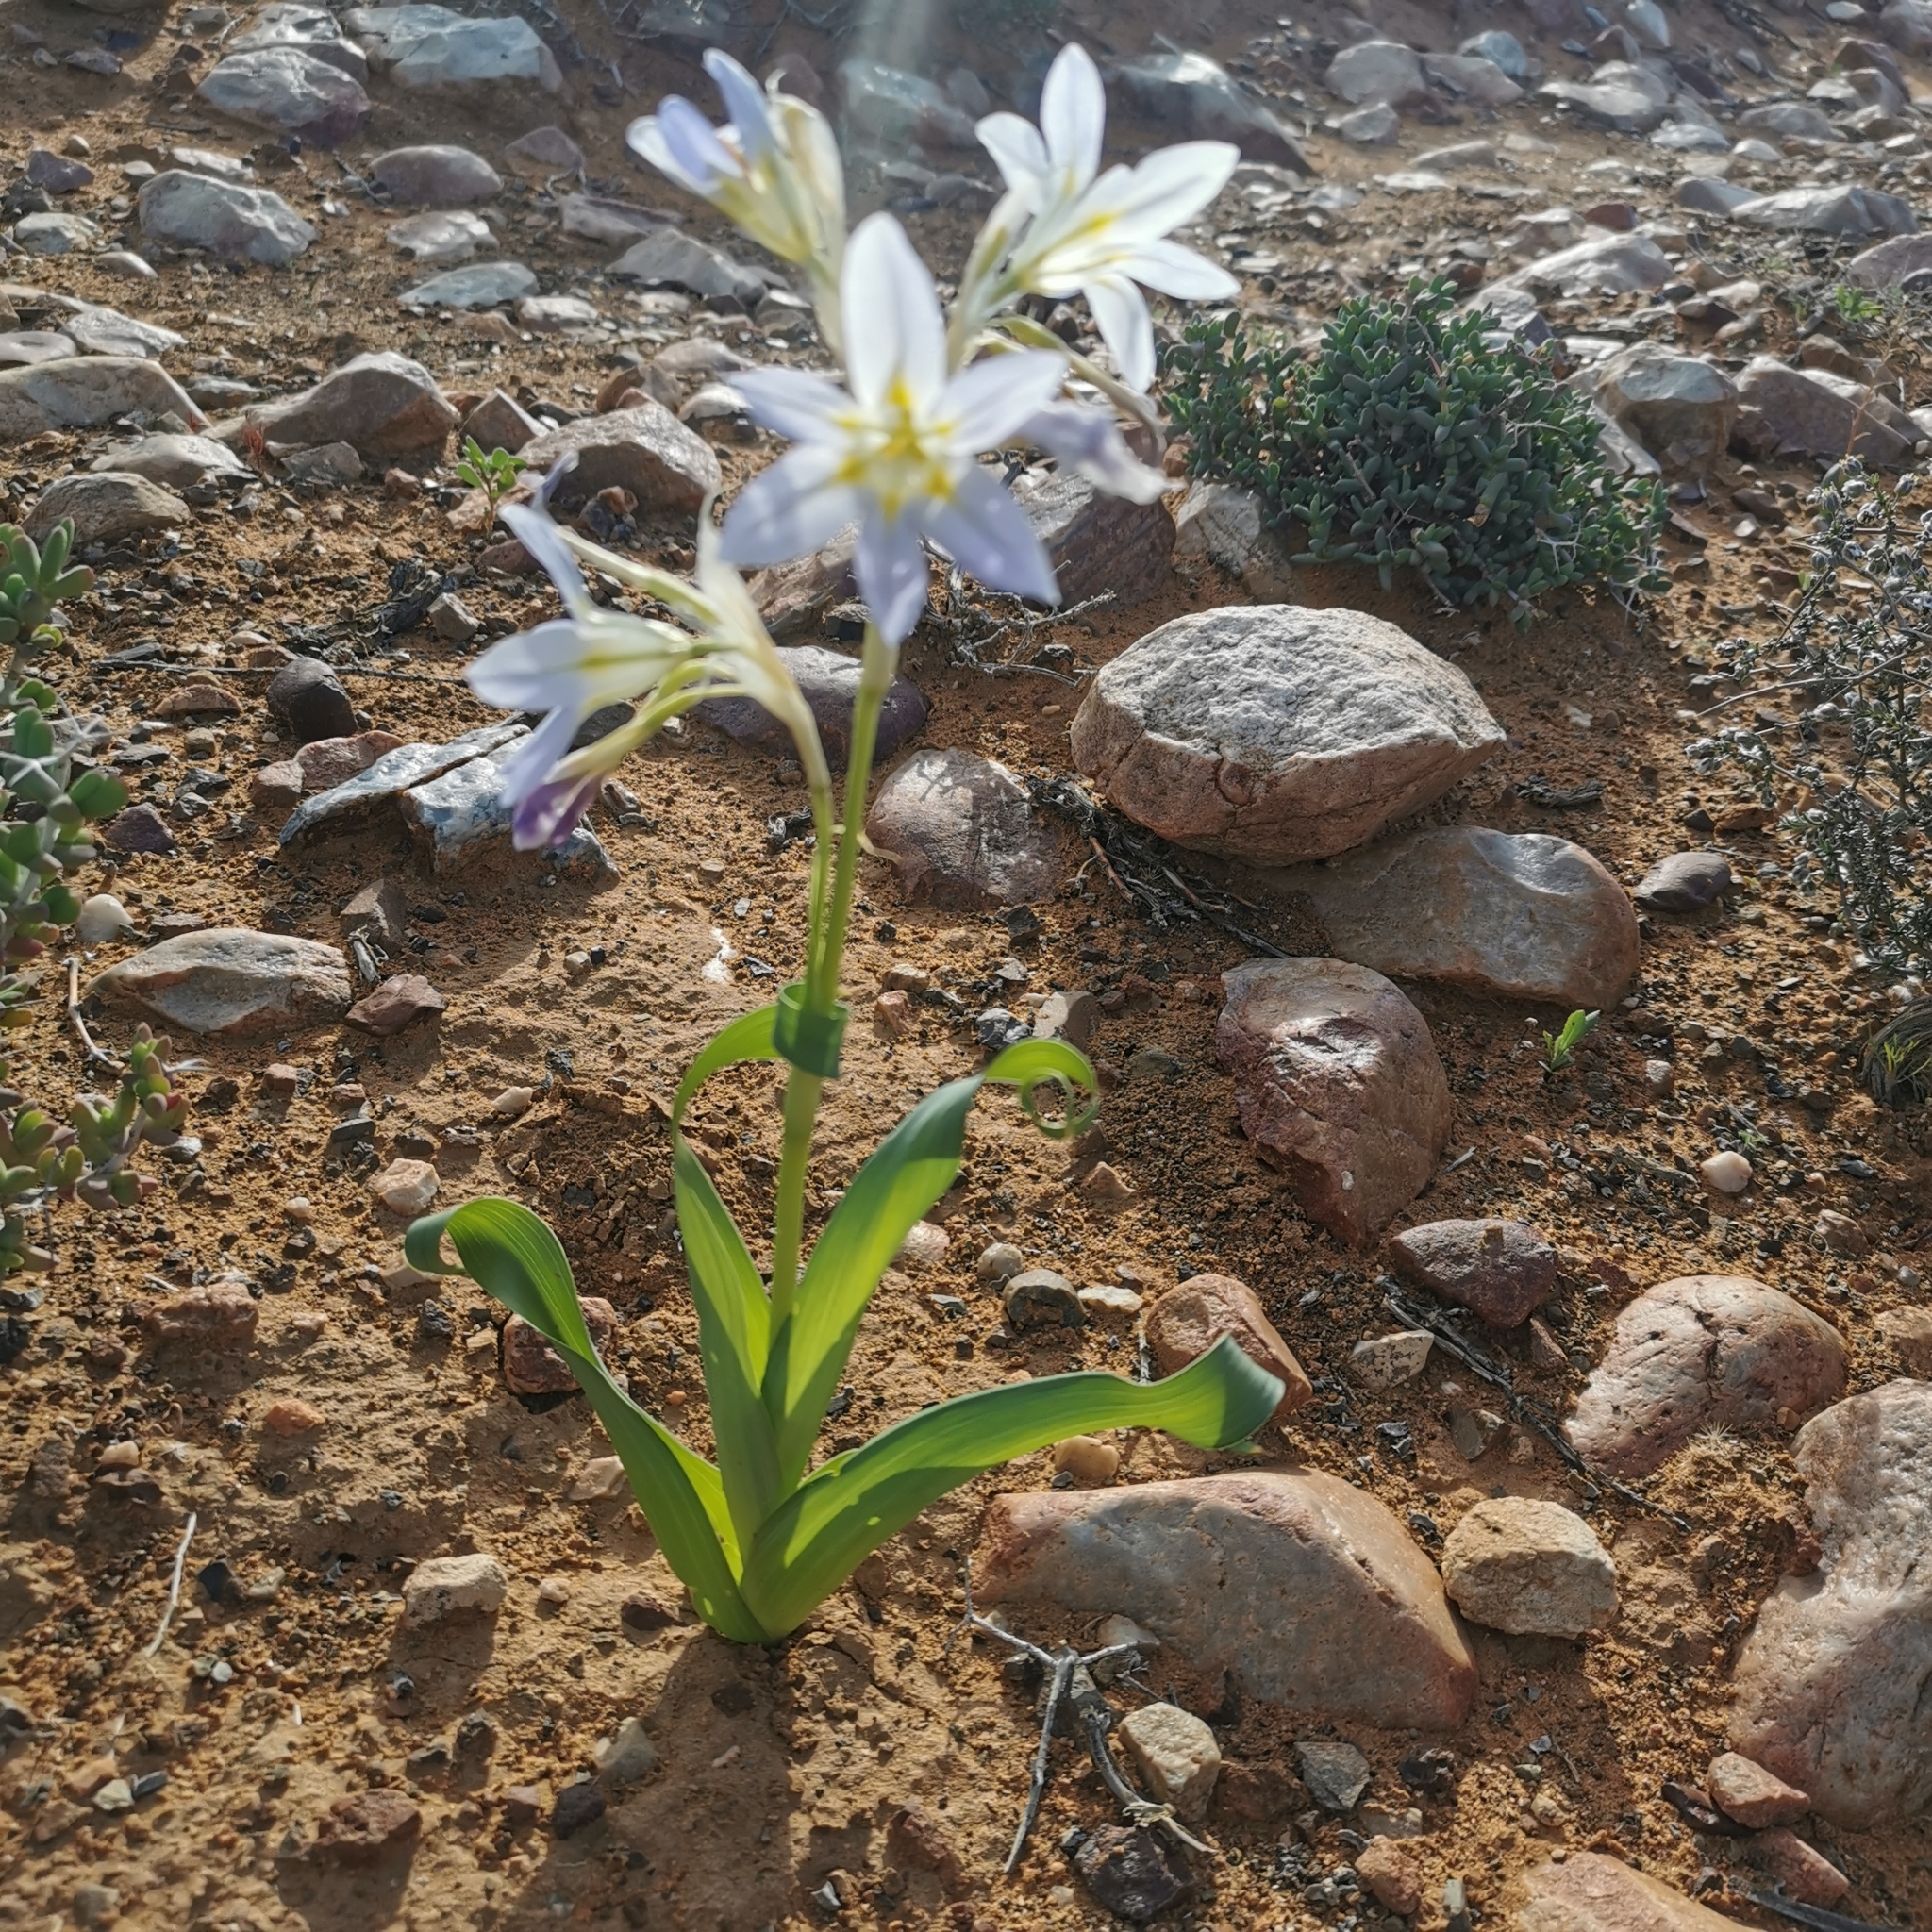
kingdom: Plantae
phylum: Tracheophyta
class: Liliopsida
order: Asparagales
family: Iridaceae
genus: Moraea
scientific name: Moraea speciosa
